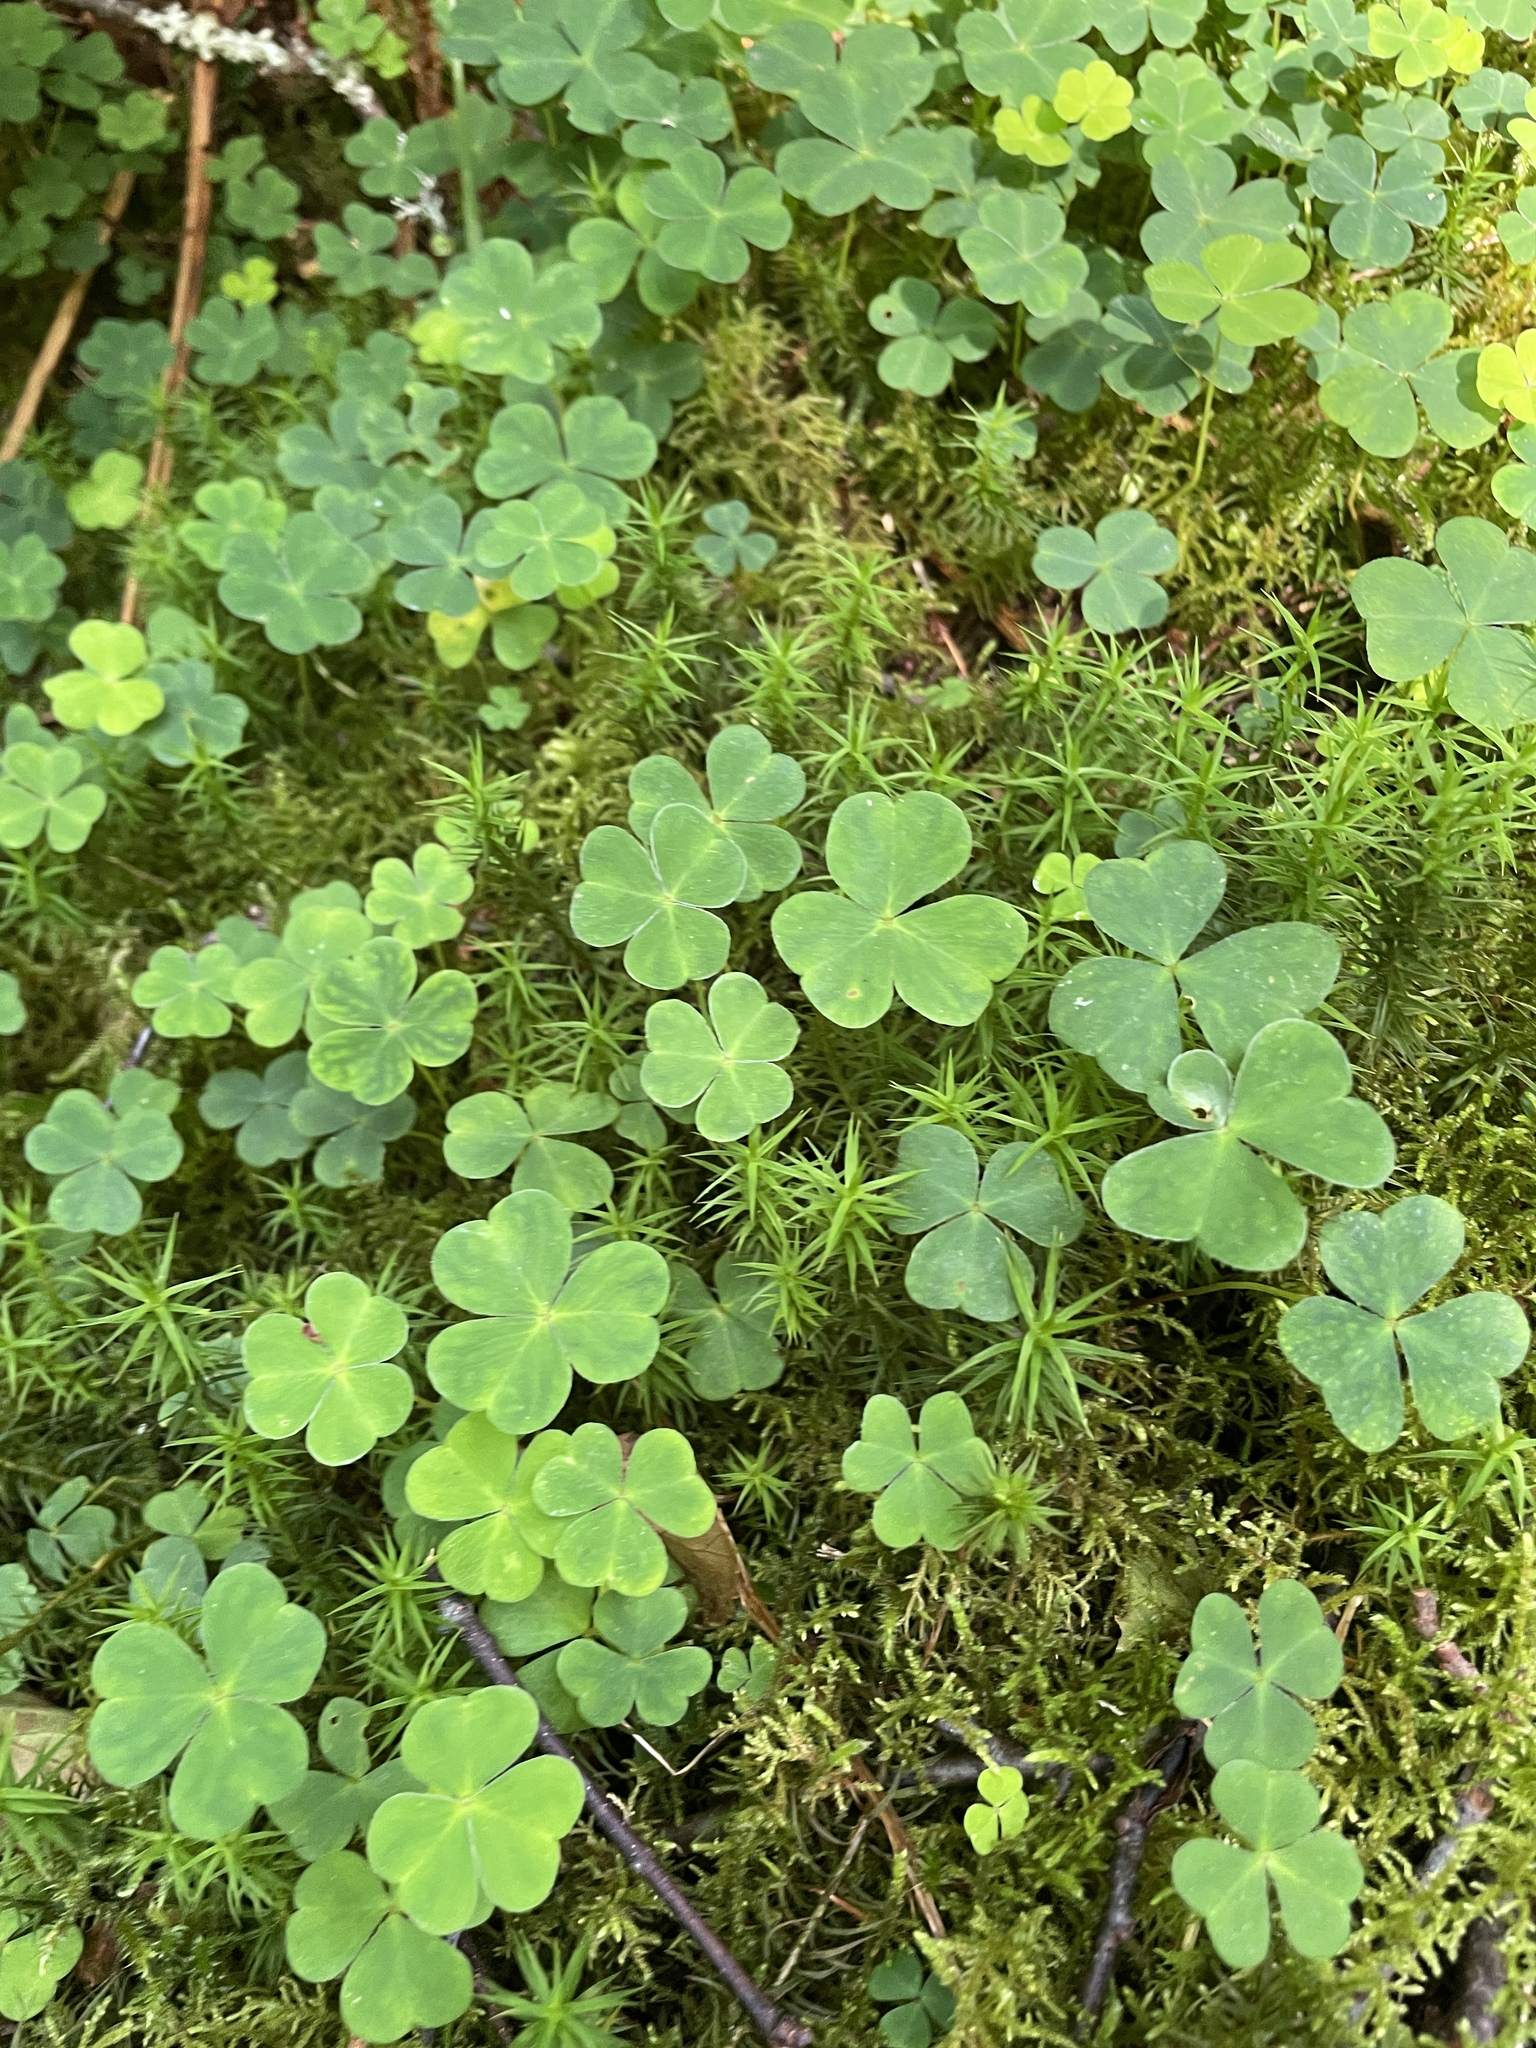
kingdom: Plantae
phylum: Tracheophyta
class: Magnoliopsida
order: Oxalidales
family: Oxalidaceae
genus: Oxalis
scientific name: Oxalis acetosella
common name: Wood-sorrel
